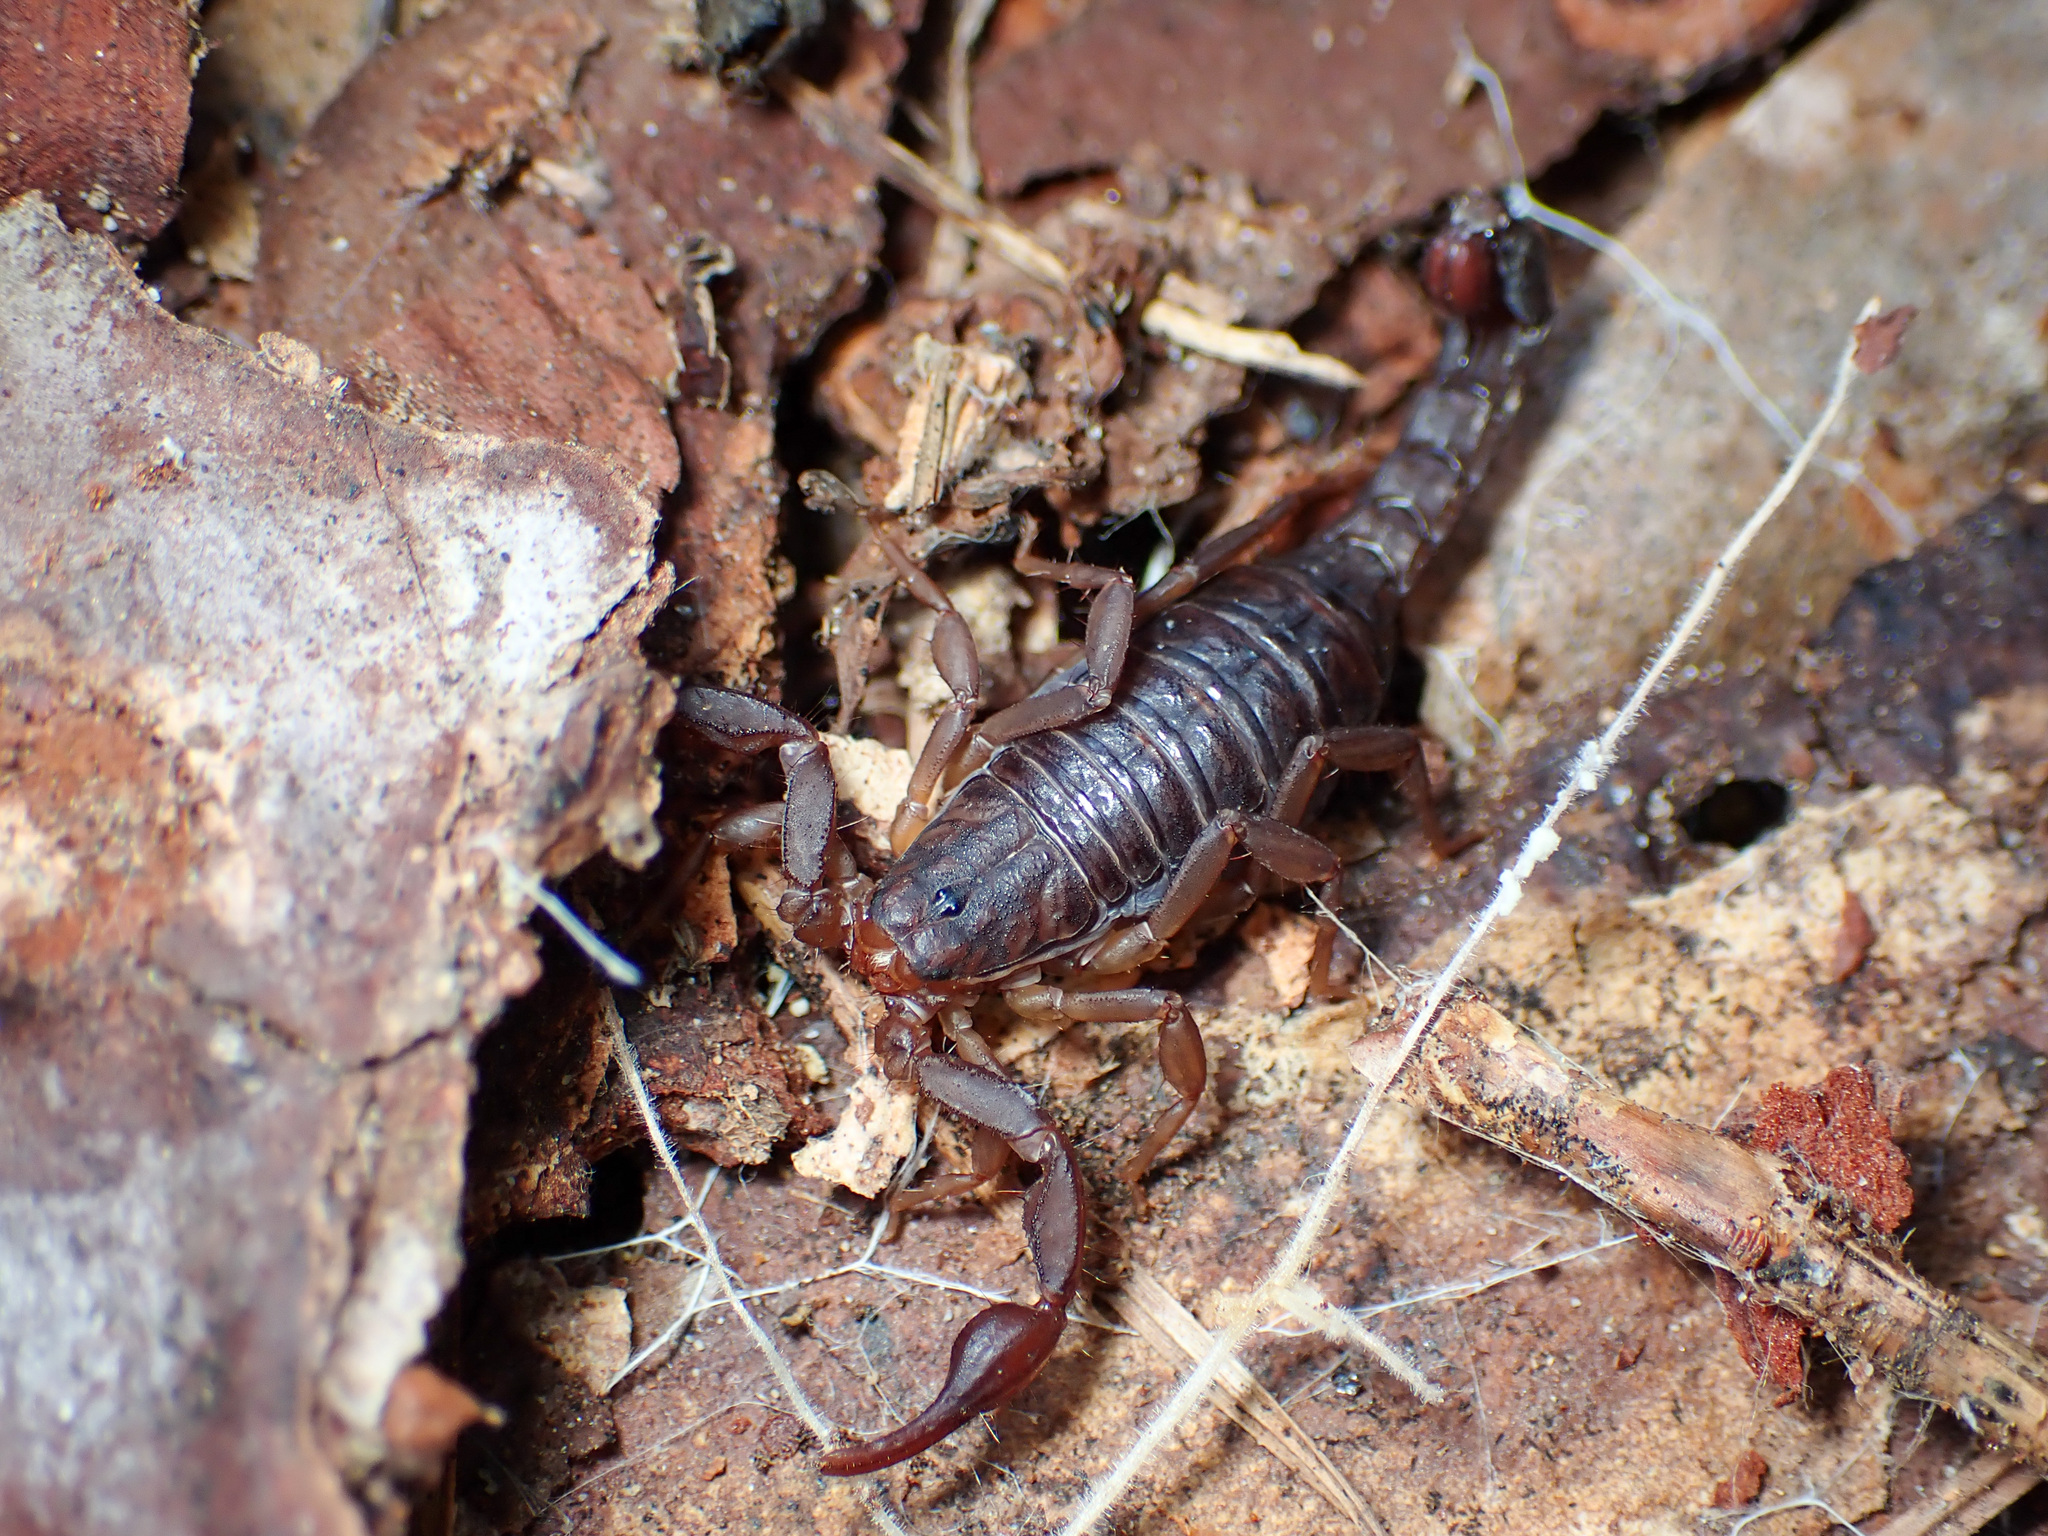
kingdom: Animalia
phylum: Arthropoda
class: Arachnida
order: Scorpiones
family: Vaejovidae
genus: Vaejovis
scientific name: Vaejovis carolinianus
